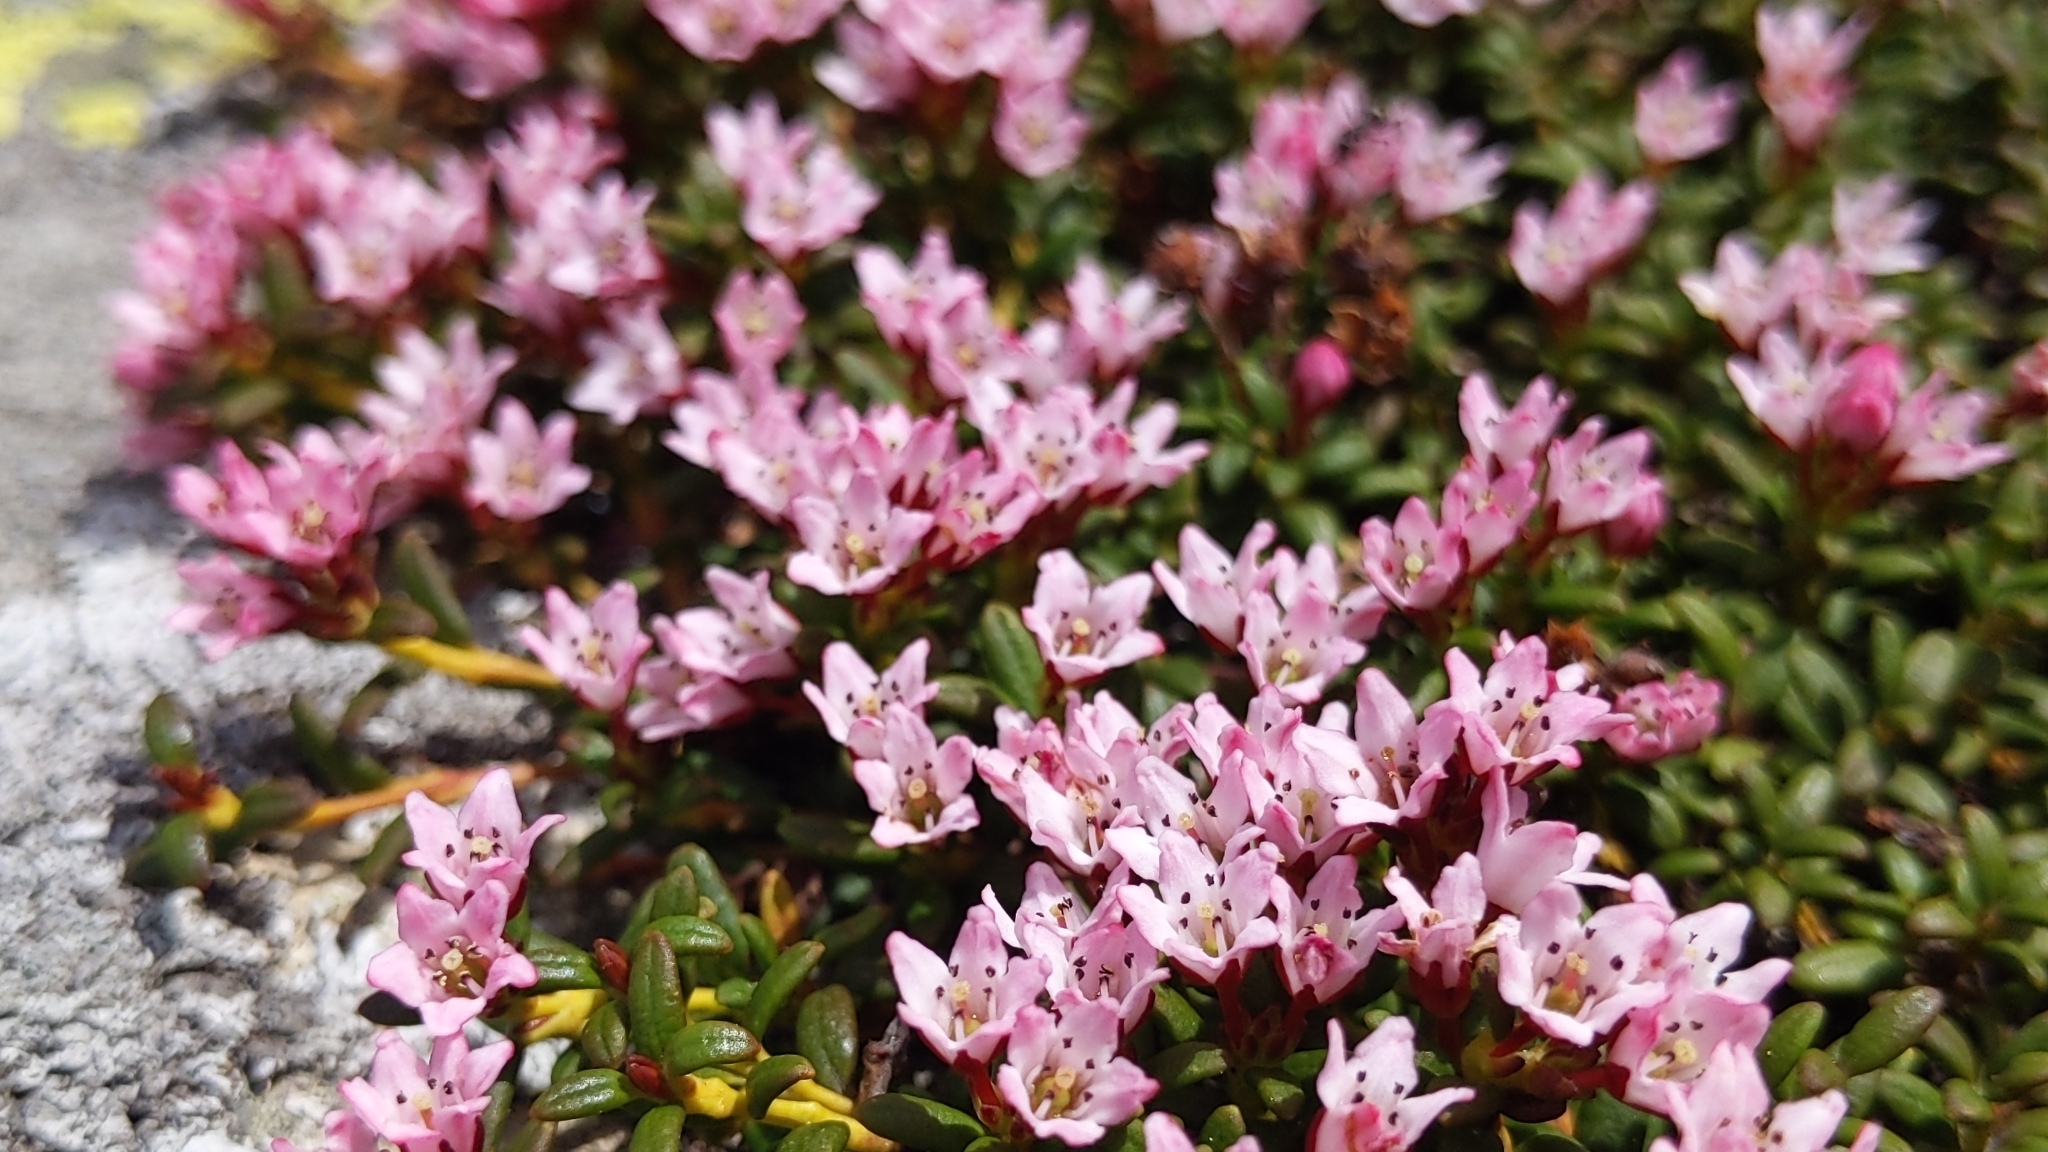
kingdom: Plantae
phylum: Tracheophyta
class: Magnoliopsida
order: Ericales
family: Ericaceae
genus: Kalmia
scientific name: Kalmia procumbens
